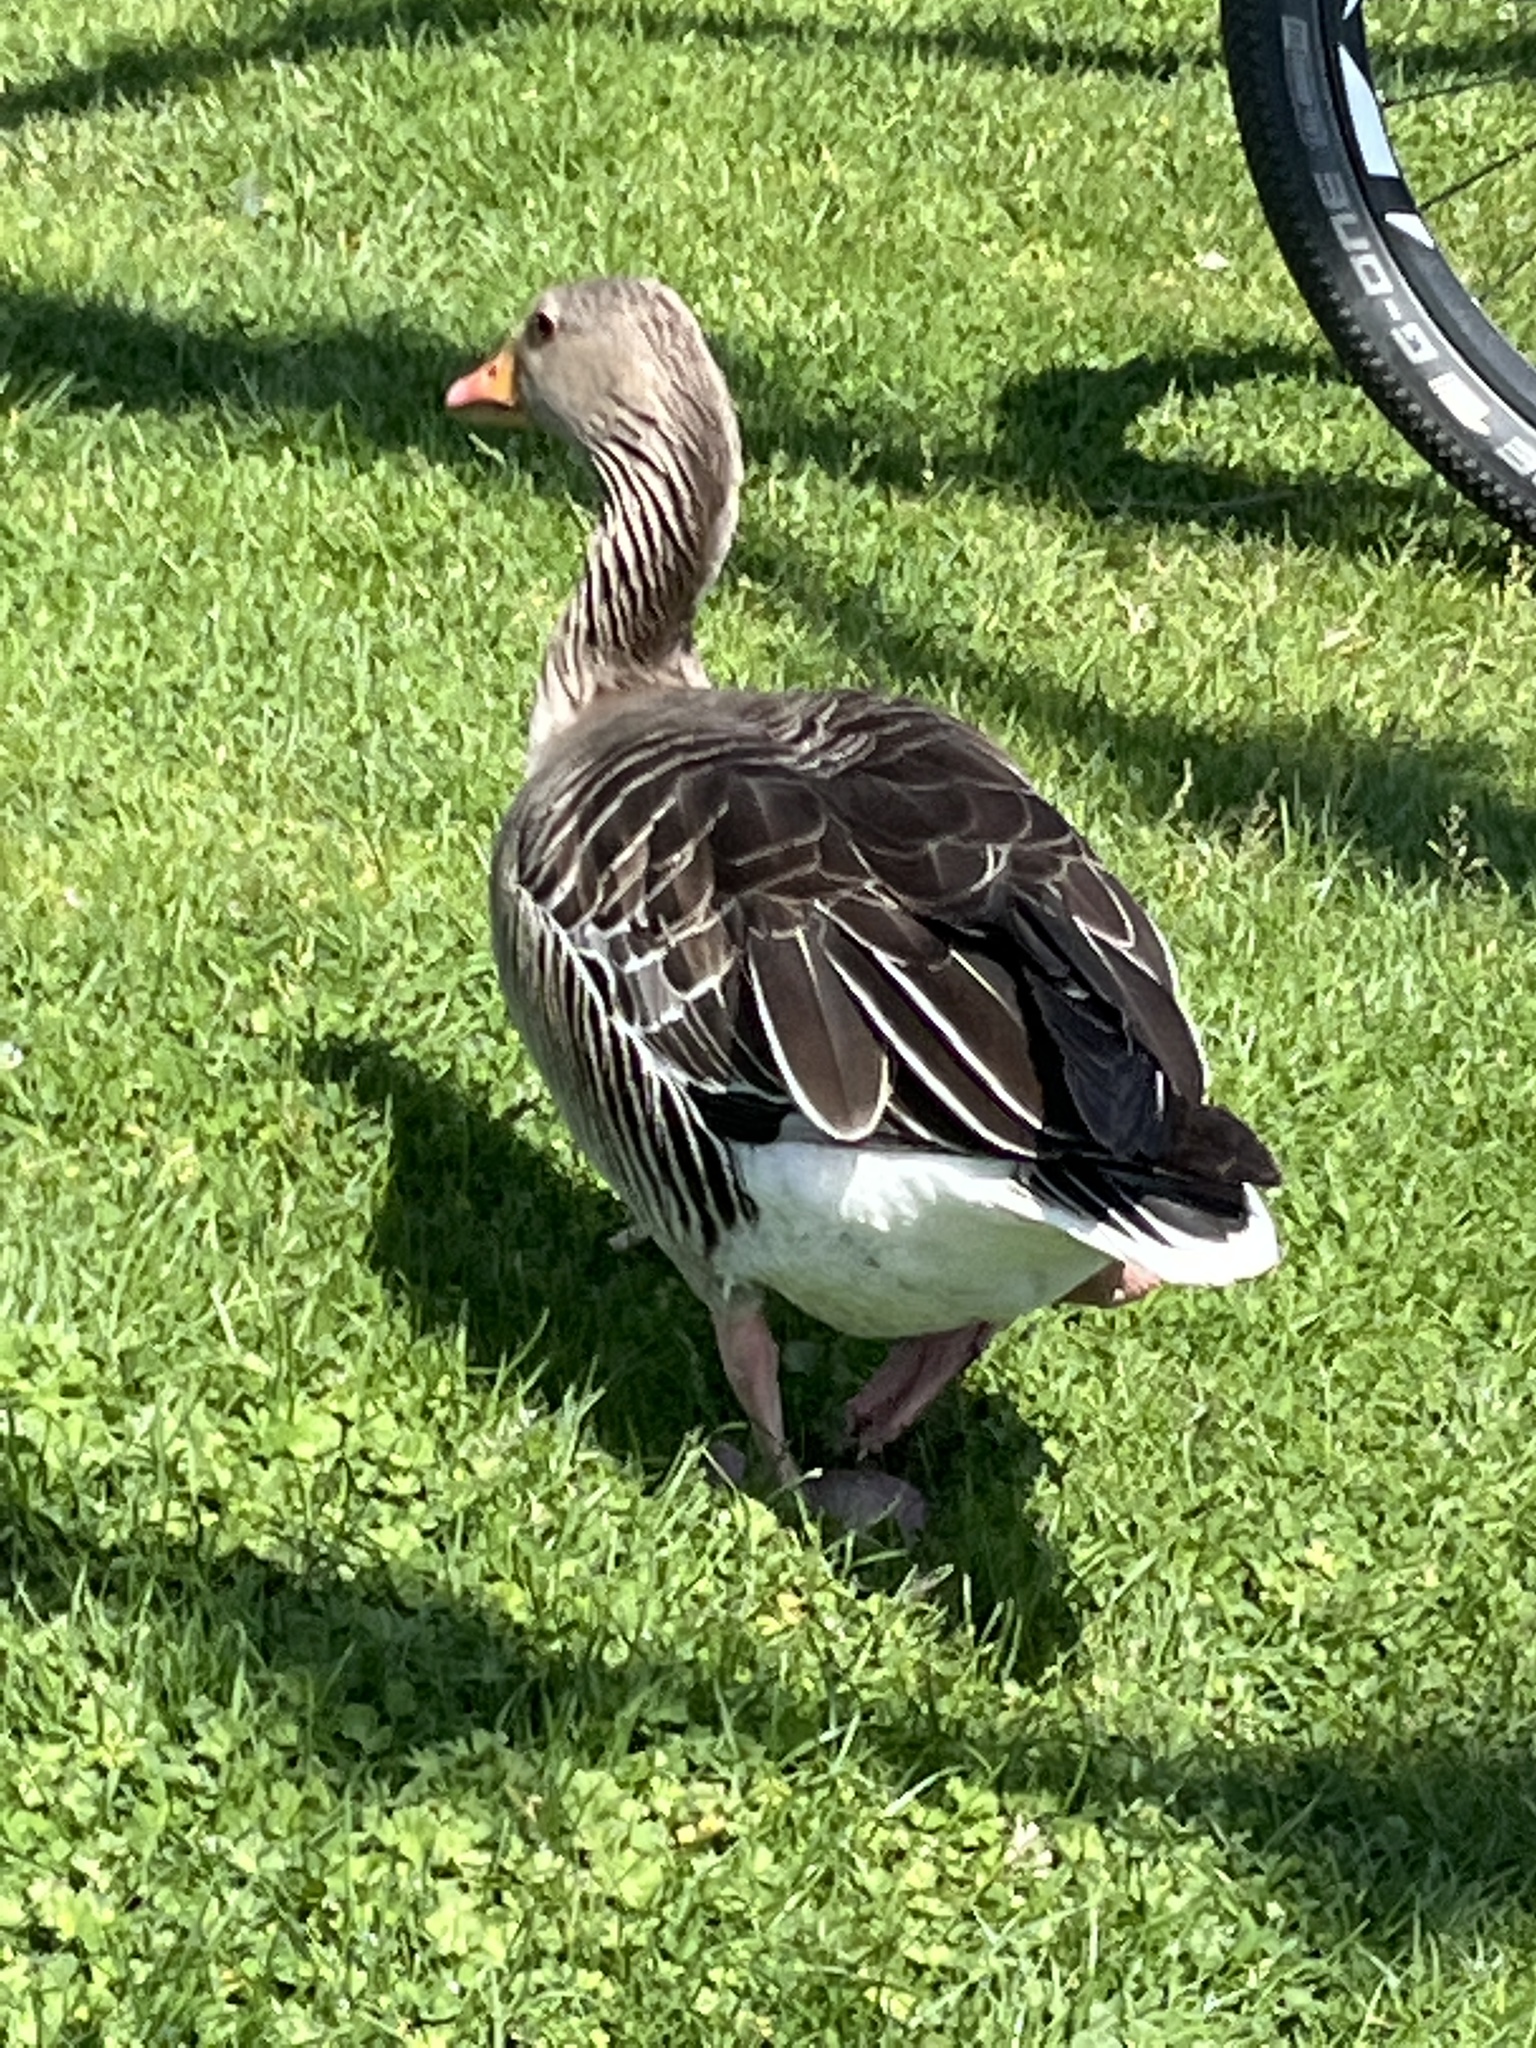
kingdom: Animalia
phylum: Chordata
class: Aves
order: Anseriformes
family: Anatidae
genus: Anser
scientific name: Anser anser
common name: Greylag goose
